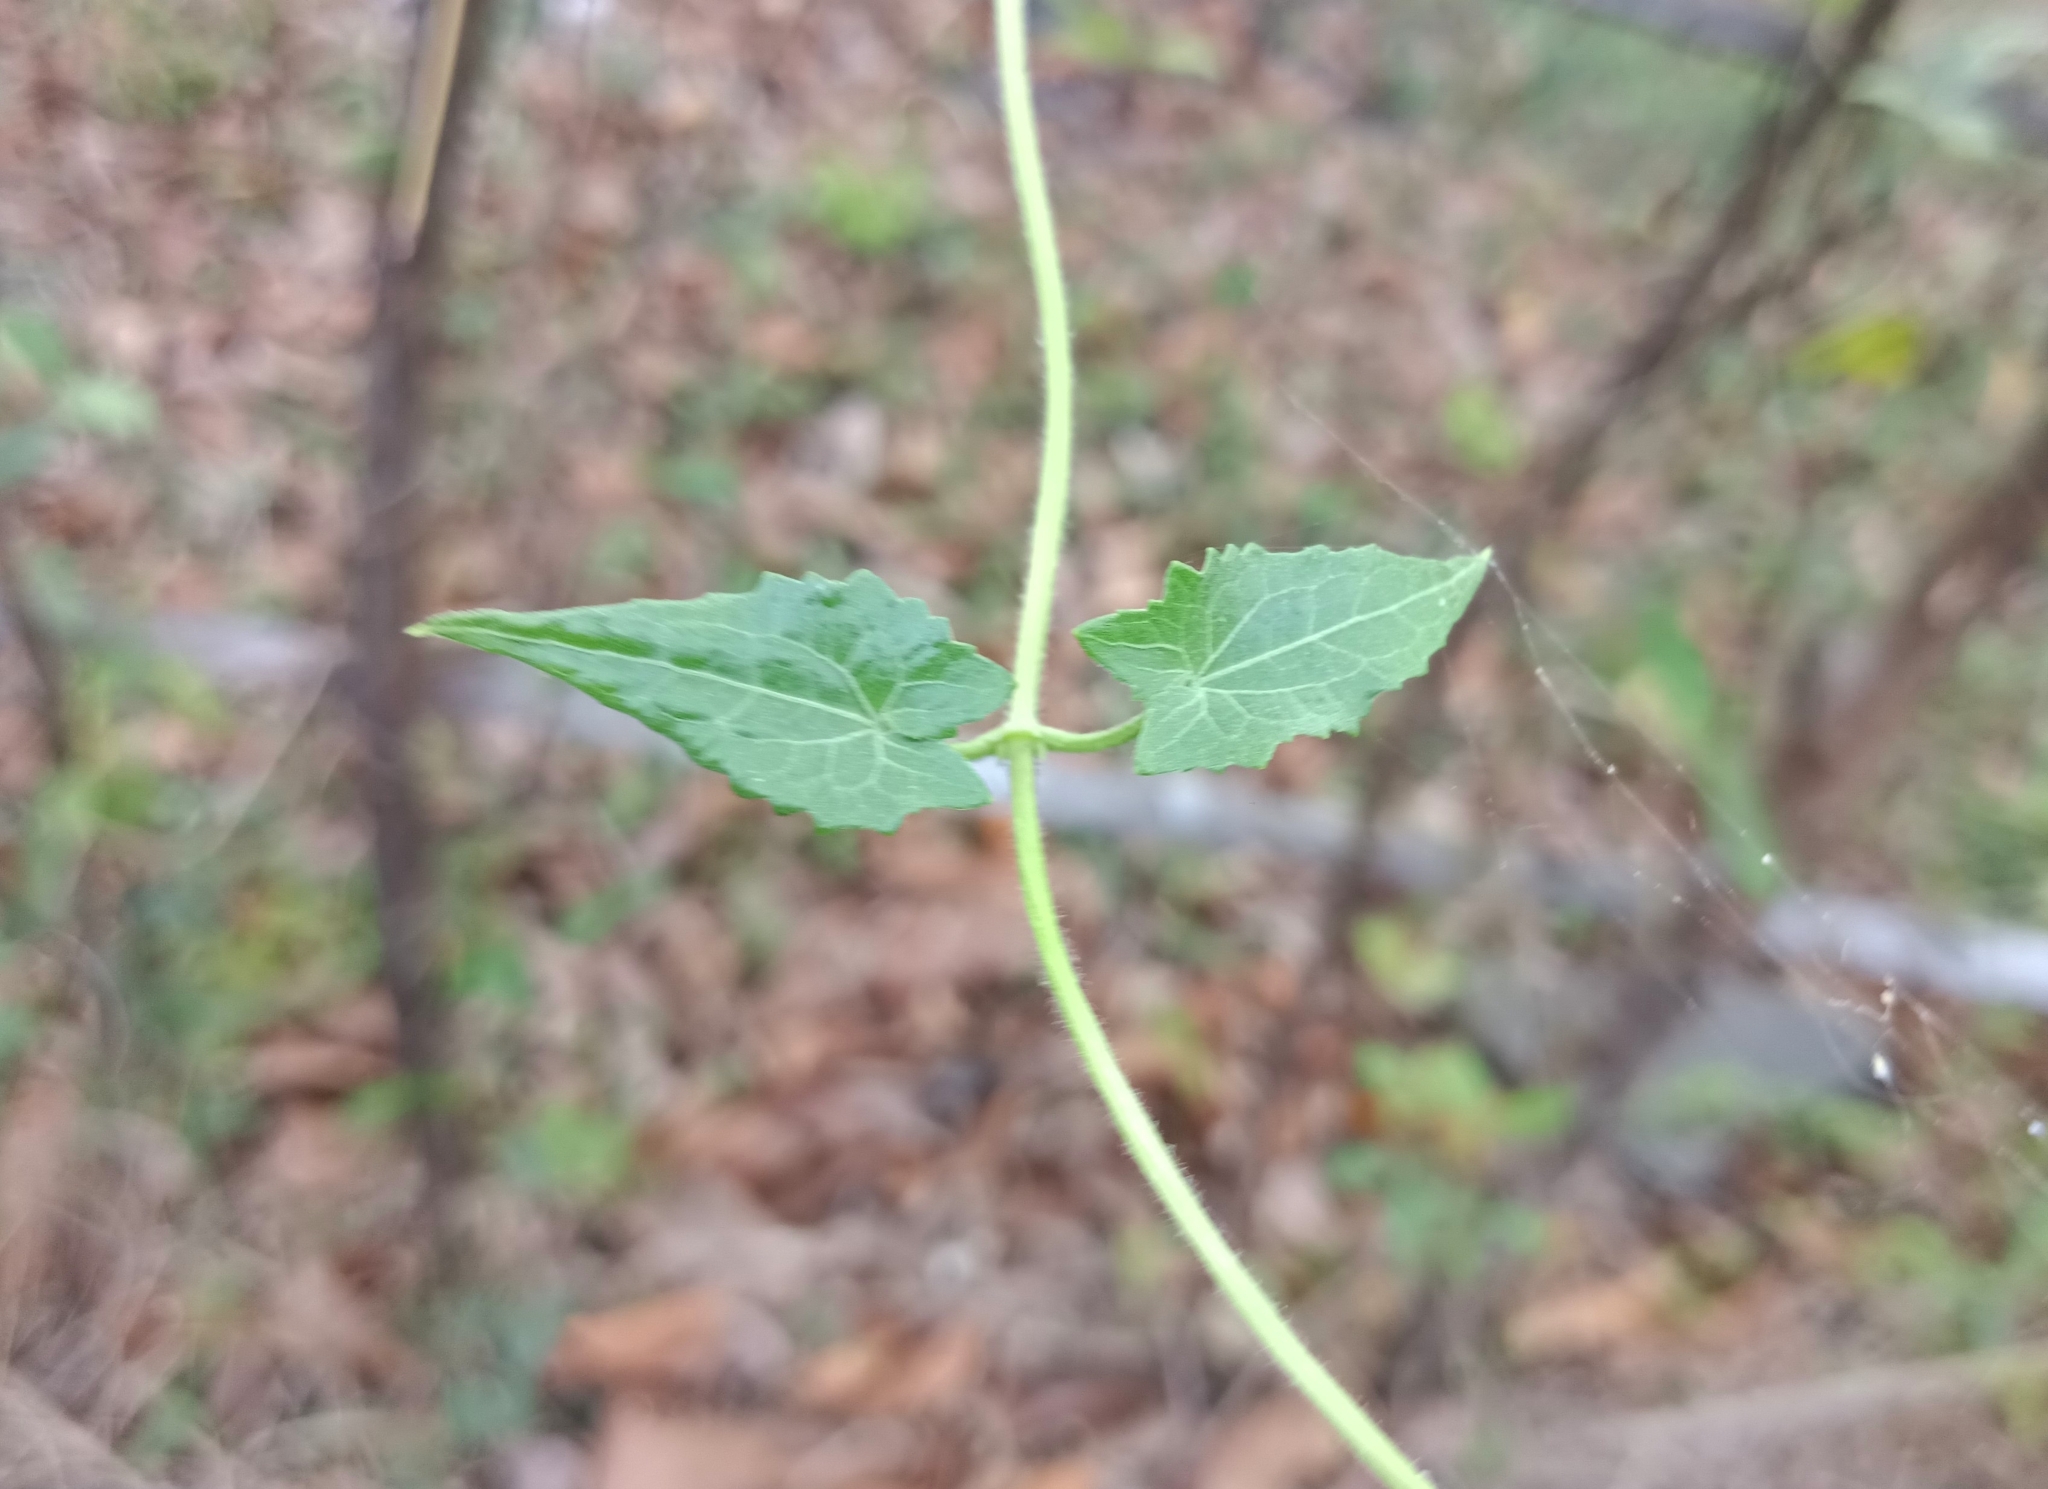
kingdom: Plantae
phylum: Tracheophyta
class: Magnoliopsida
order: Asterales
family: Asteraceae
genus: Mikania
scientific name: Mikania micrantha
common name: Mile-a-minute
